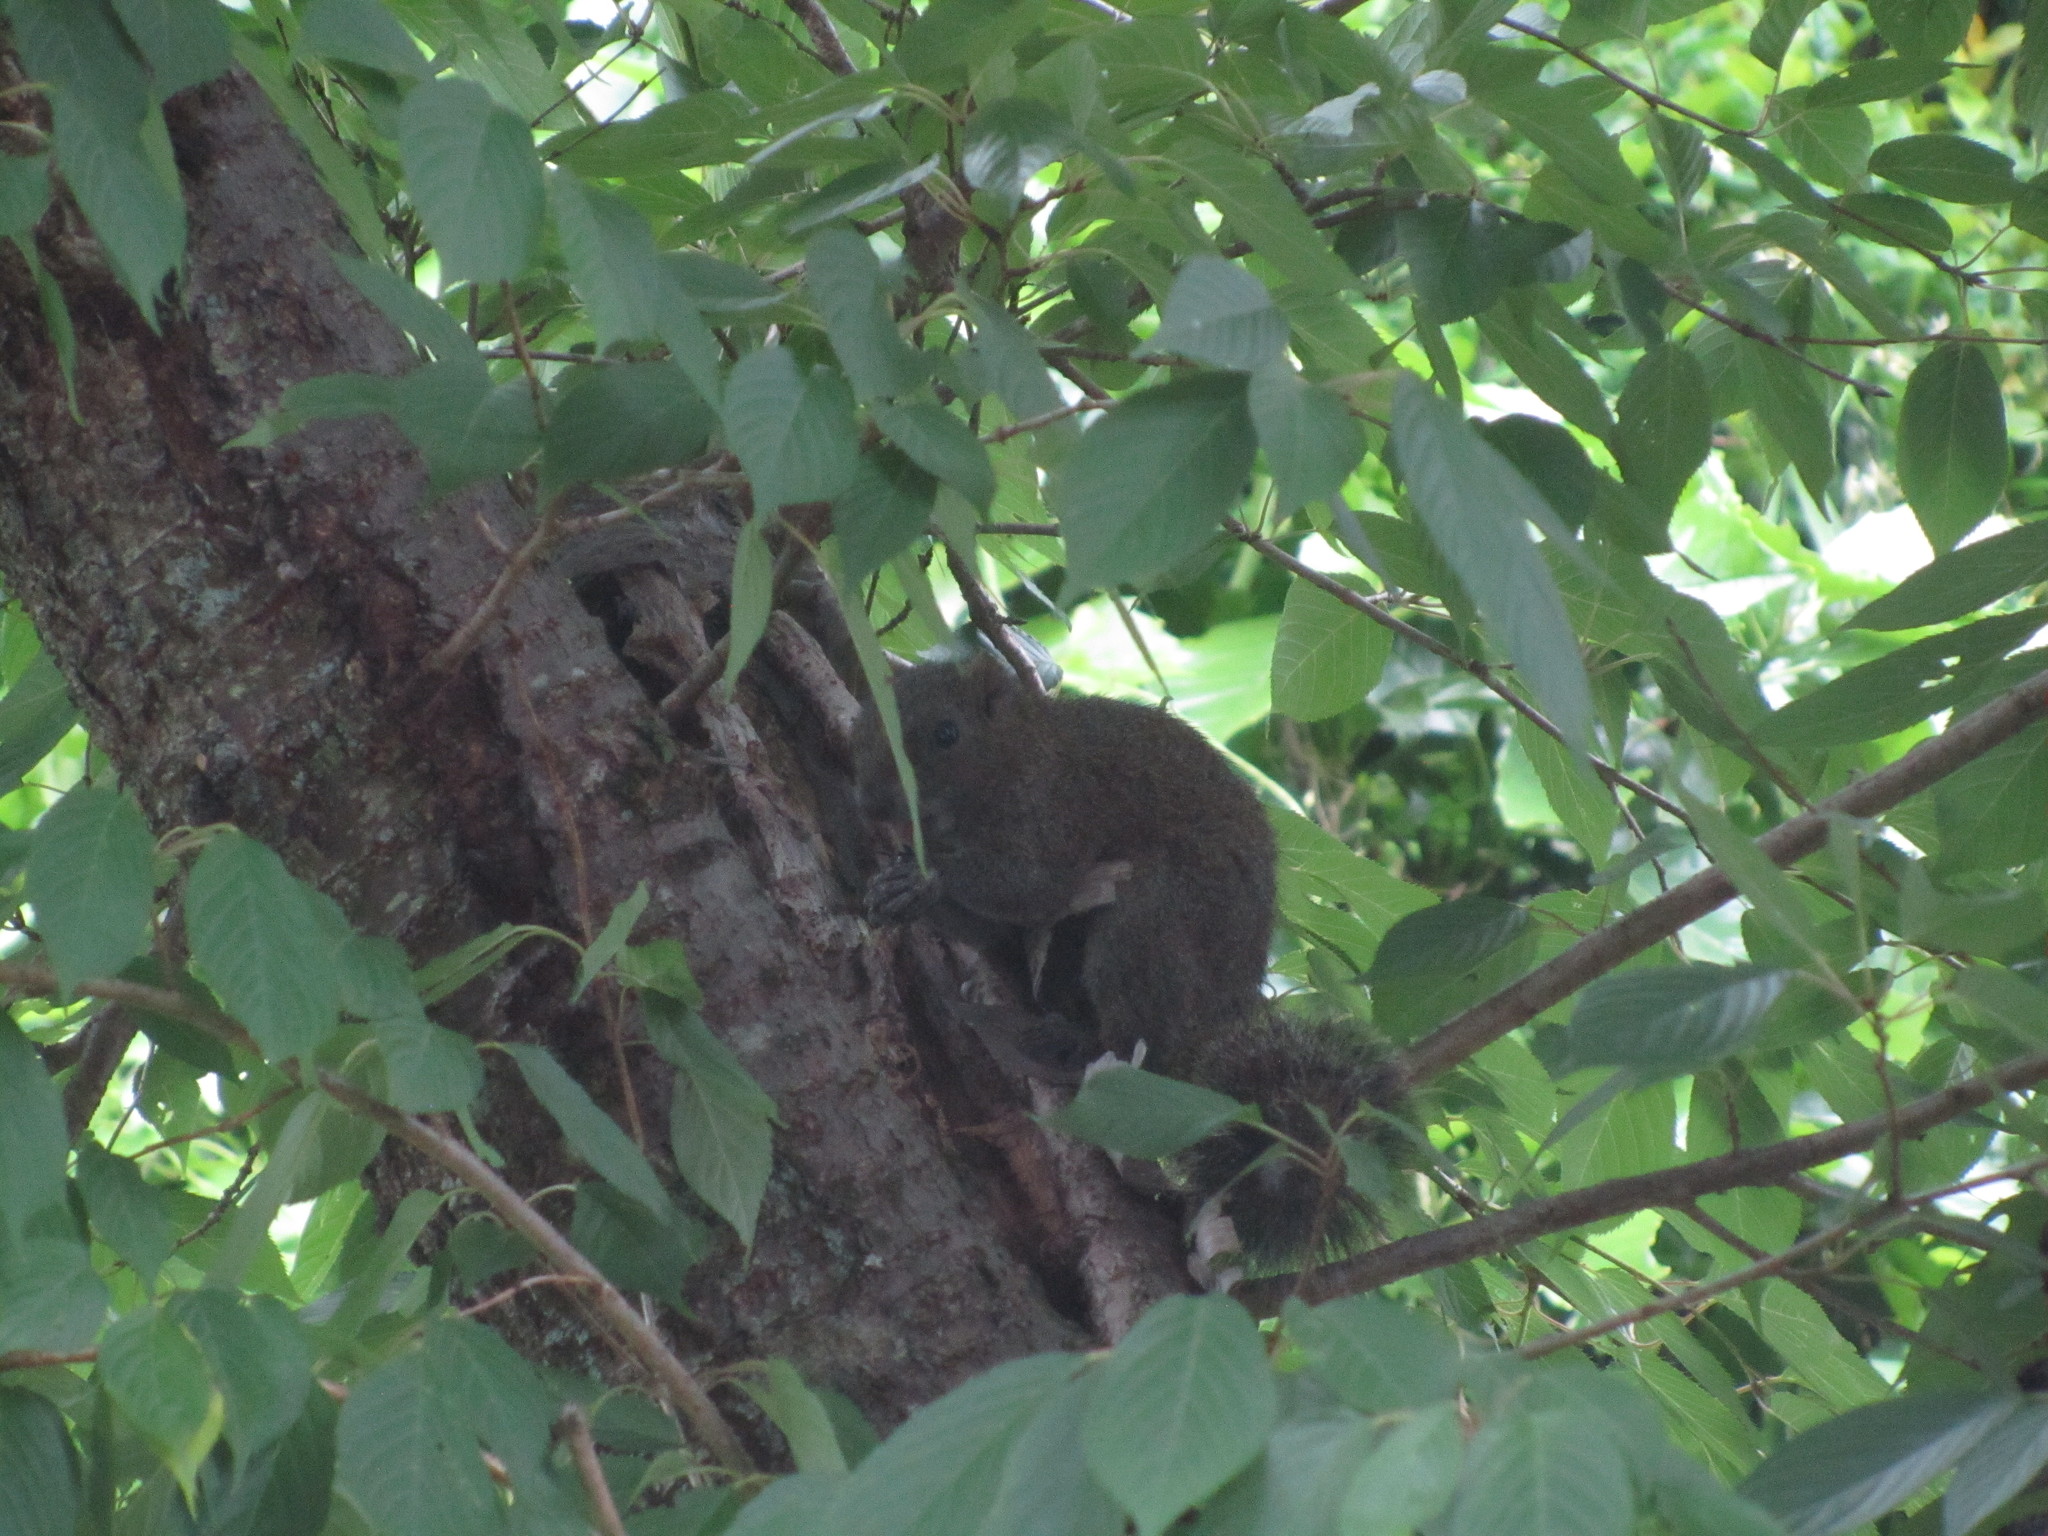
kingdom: Animalia
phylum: Chordata
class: Mammalia
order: Rodentia
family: Sciuridae
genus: Callosciurus
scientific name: Callosciurus erythraeus
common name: Pallas's squirrel
